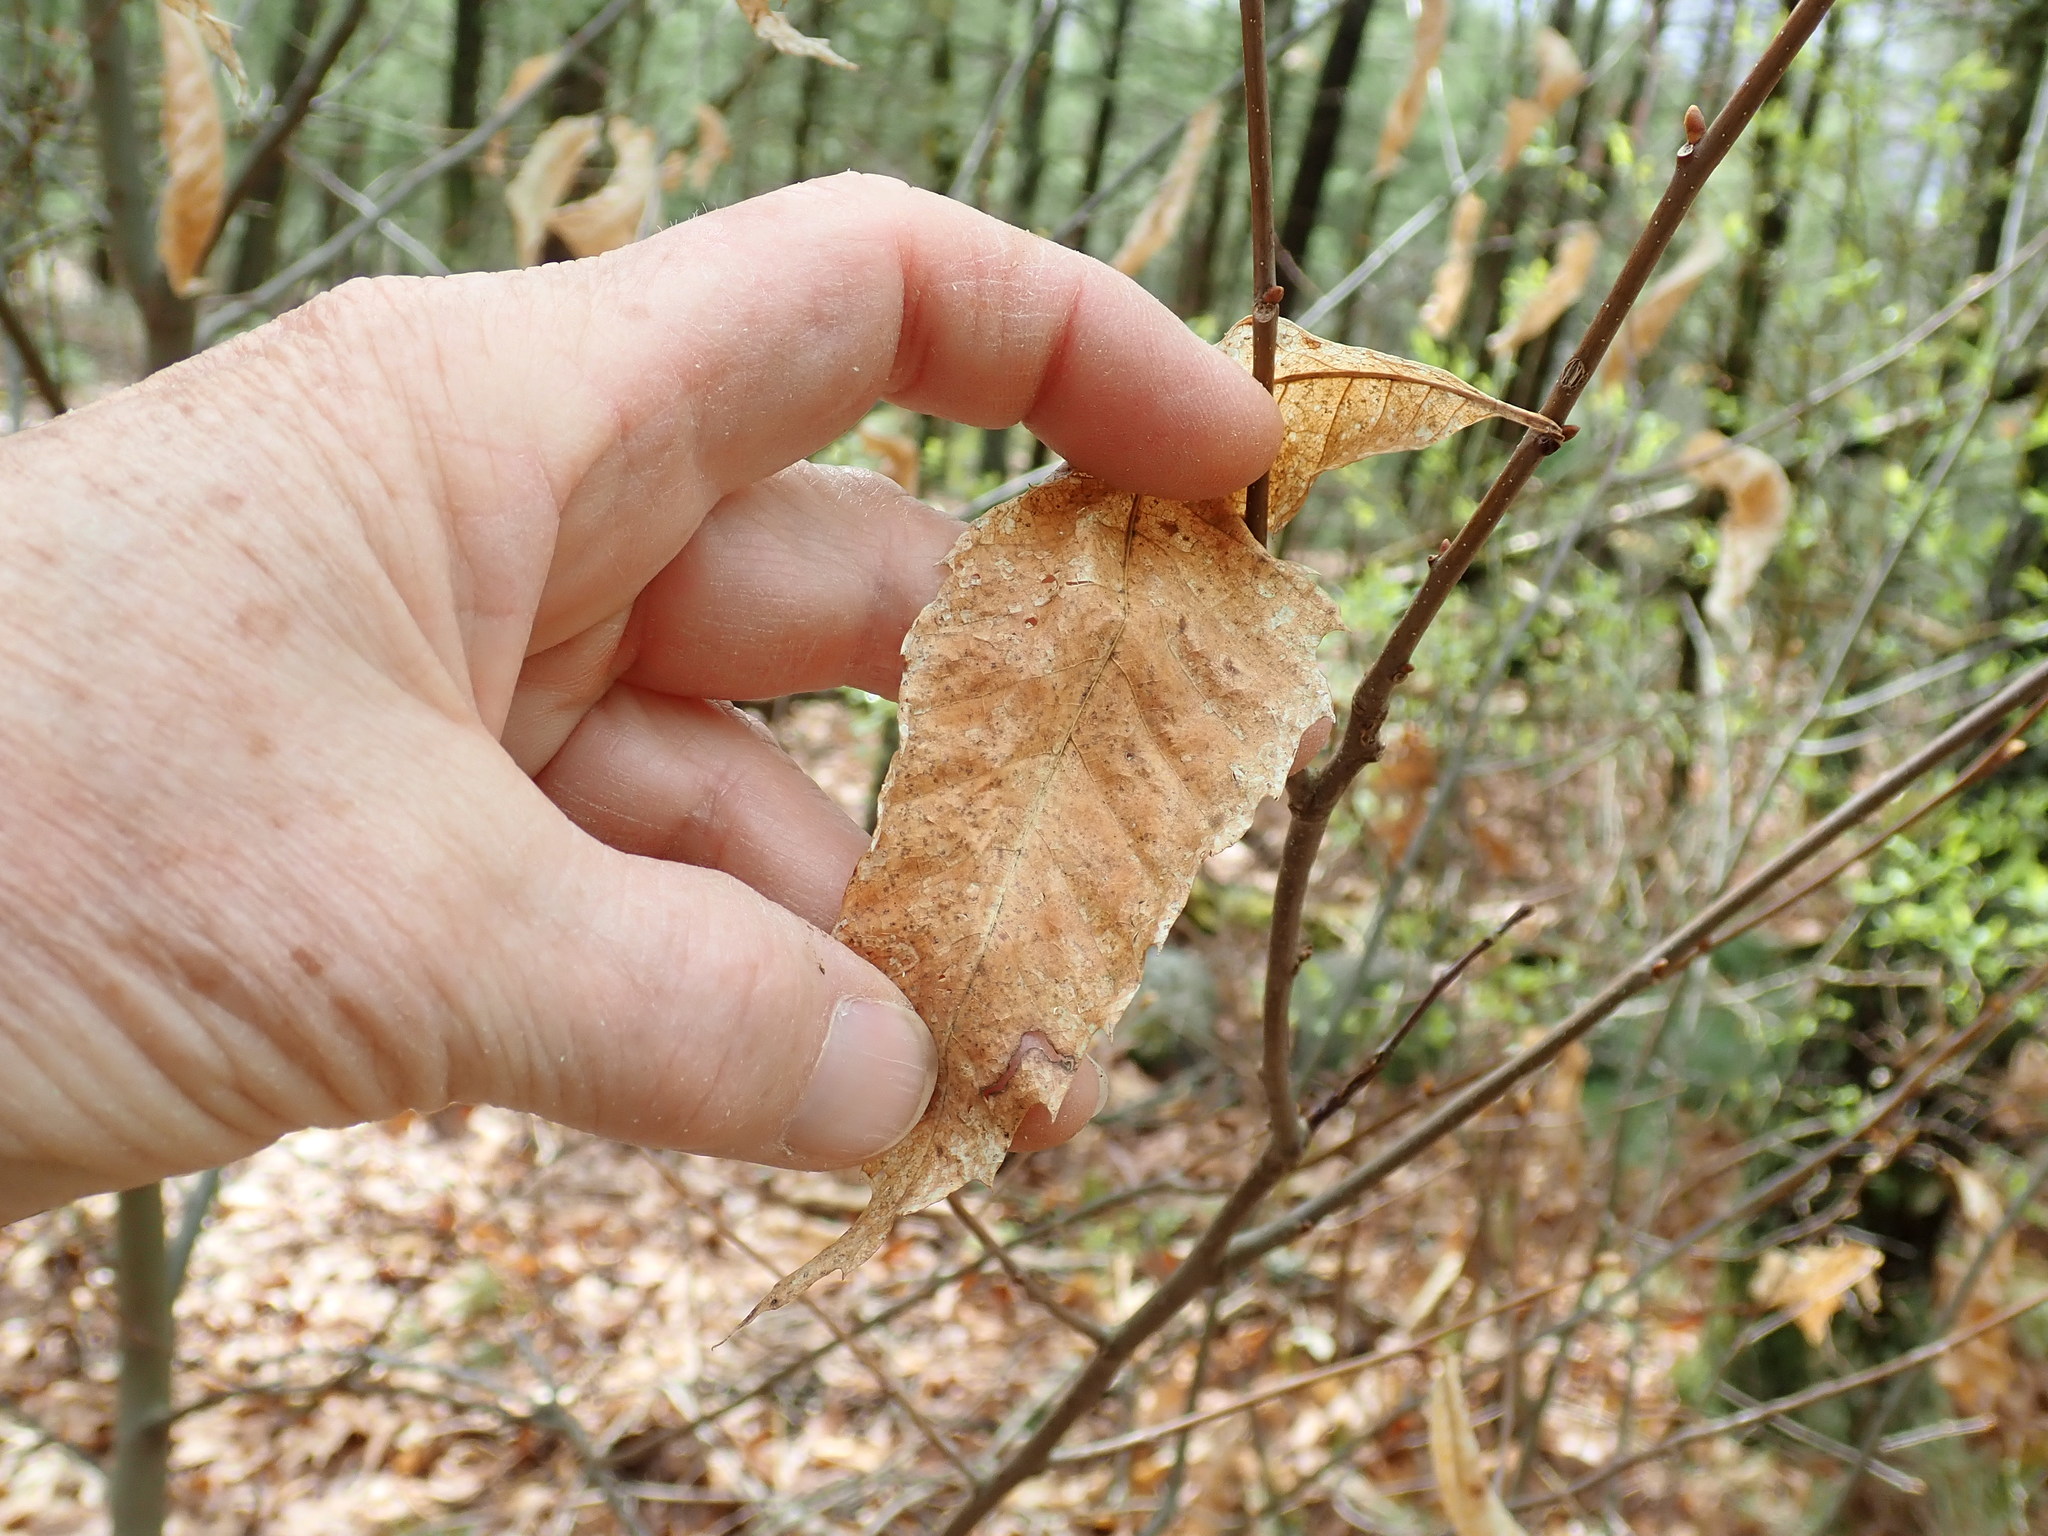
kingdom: Plantae
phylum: Tracheophyta
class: Magnoliopsida
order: Fagales
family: Fagaceae
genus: Castanea
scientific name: Castanea dentata
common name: American chestnut
